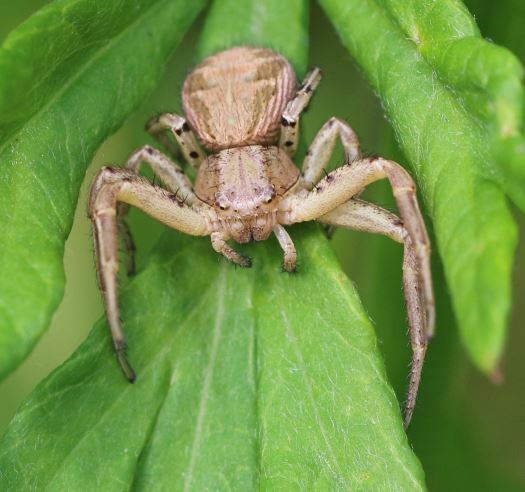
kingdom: Animalia
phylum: Arthropoda
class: Arachnida
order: Araneae
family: Thomisidae
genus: Xysticus
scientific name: Xysticus
